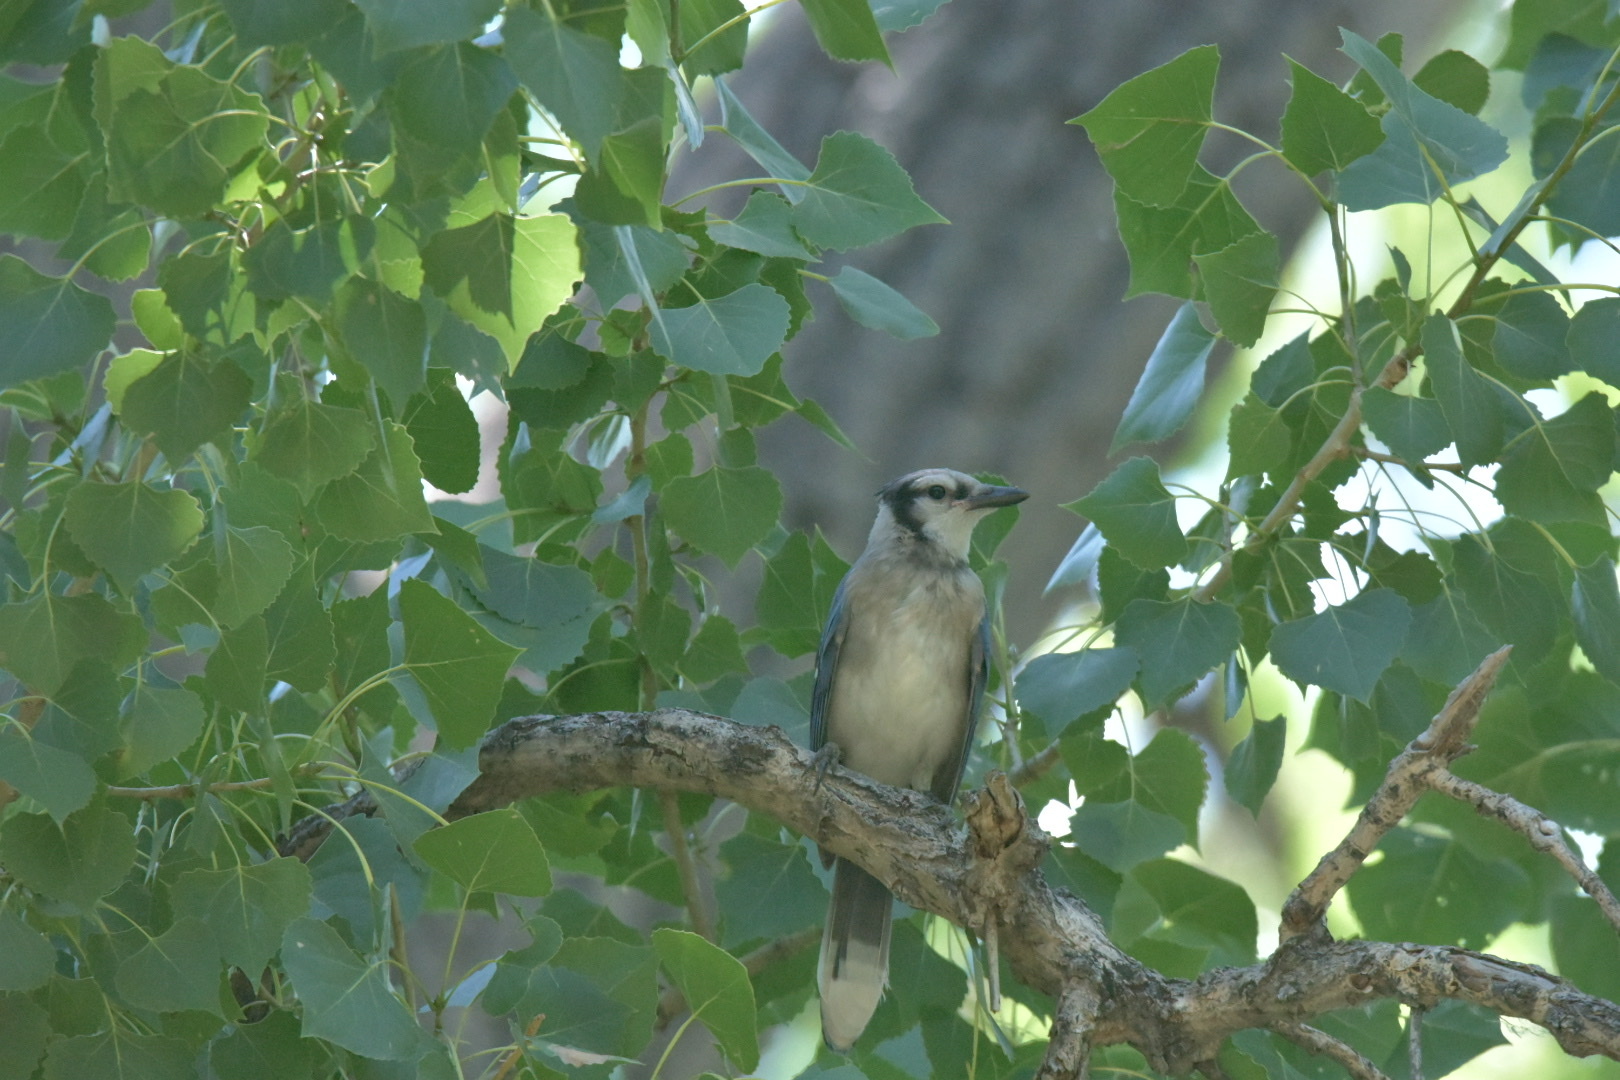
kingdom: Animalia
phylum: Chordata
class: Aves
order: Passeriformes
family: Corvidae
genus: Cyanocitta
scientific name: Cyanocitta cristata
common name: Blue jay
